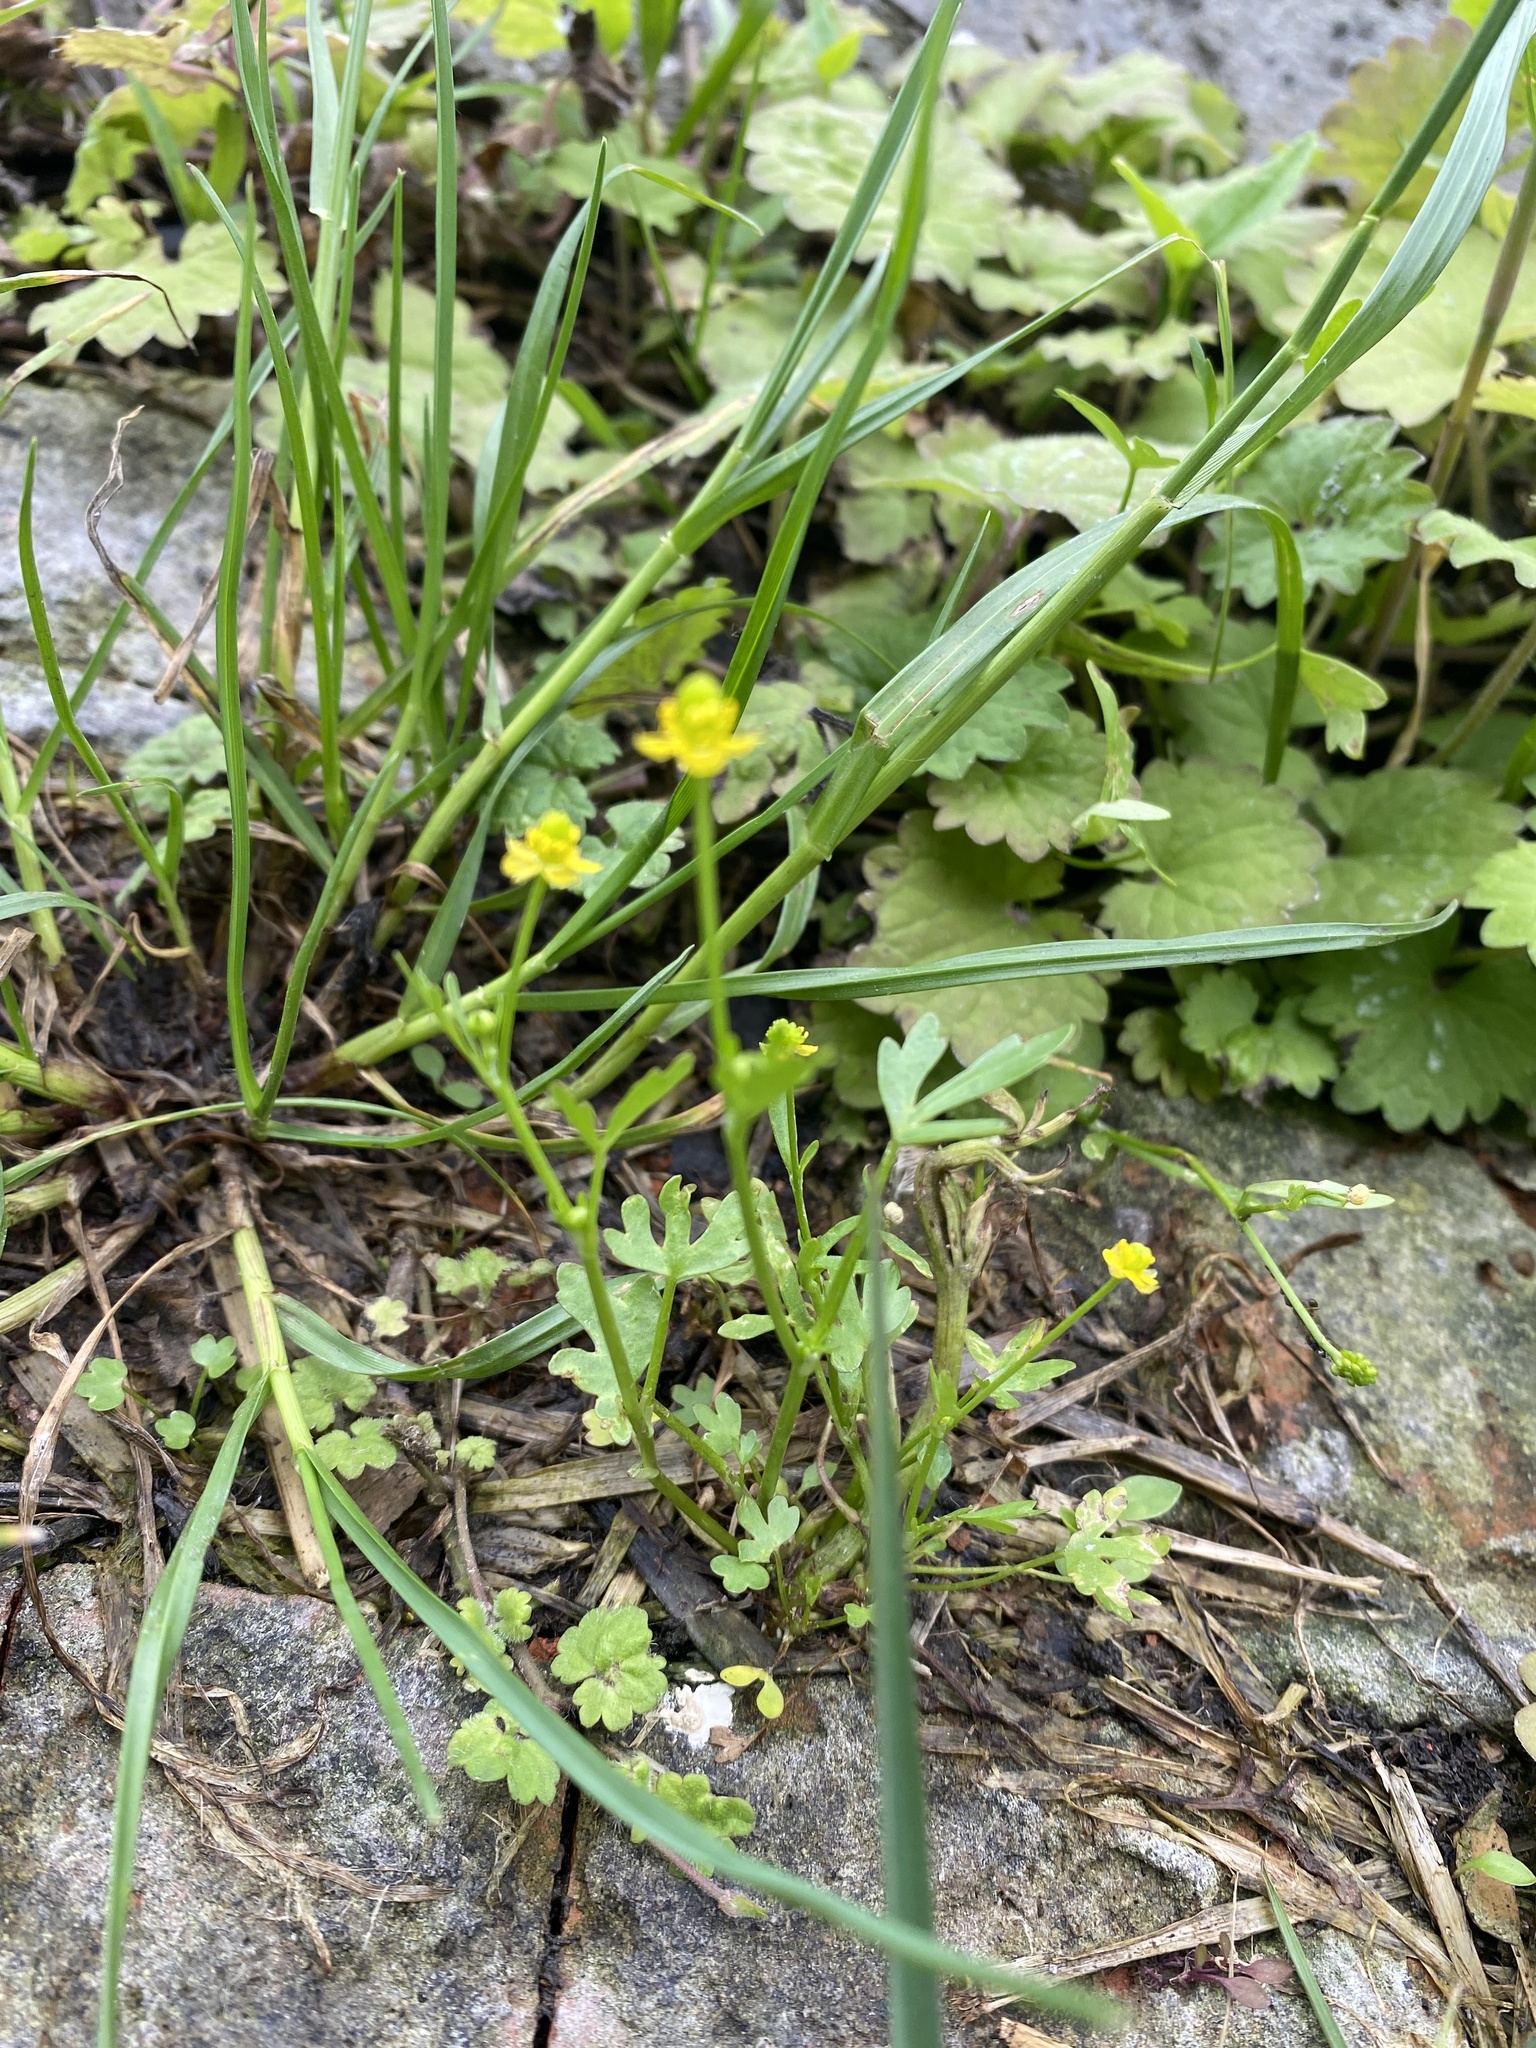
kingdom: Plantae
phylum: Tracheophyta
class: Magnoliopsida
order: Ranunculales
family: Ranunculaceae
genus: Ranunculus
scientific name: Ranunculus sceleratus
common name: Celery-leaved buttercup
